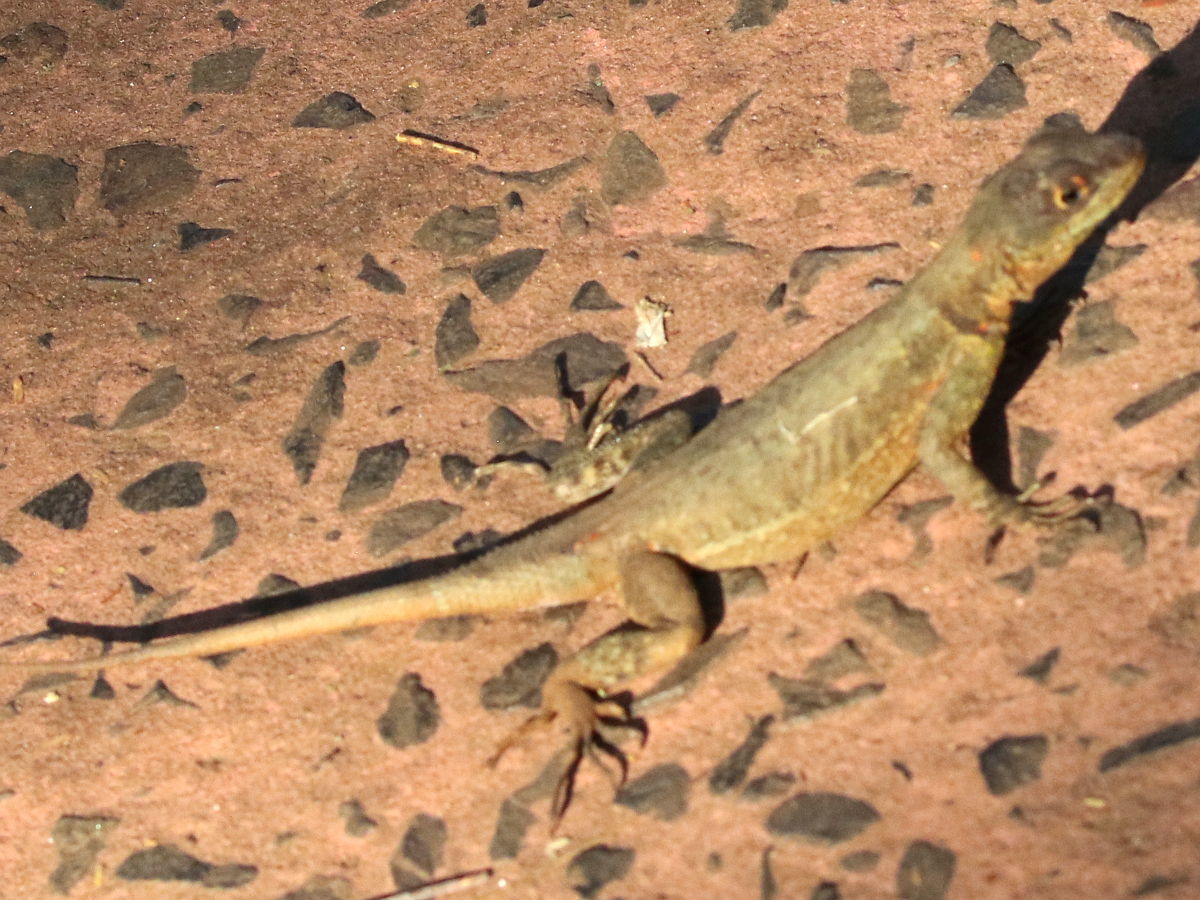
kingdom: Animalia
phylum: Chordata
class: Squamata
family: Tropiduridae
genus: Tropidurus
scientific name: Tropidurus catalanensis
